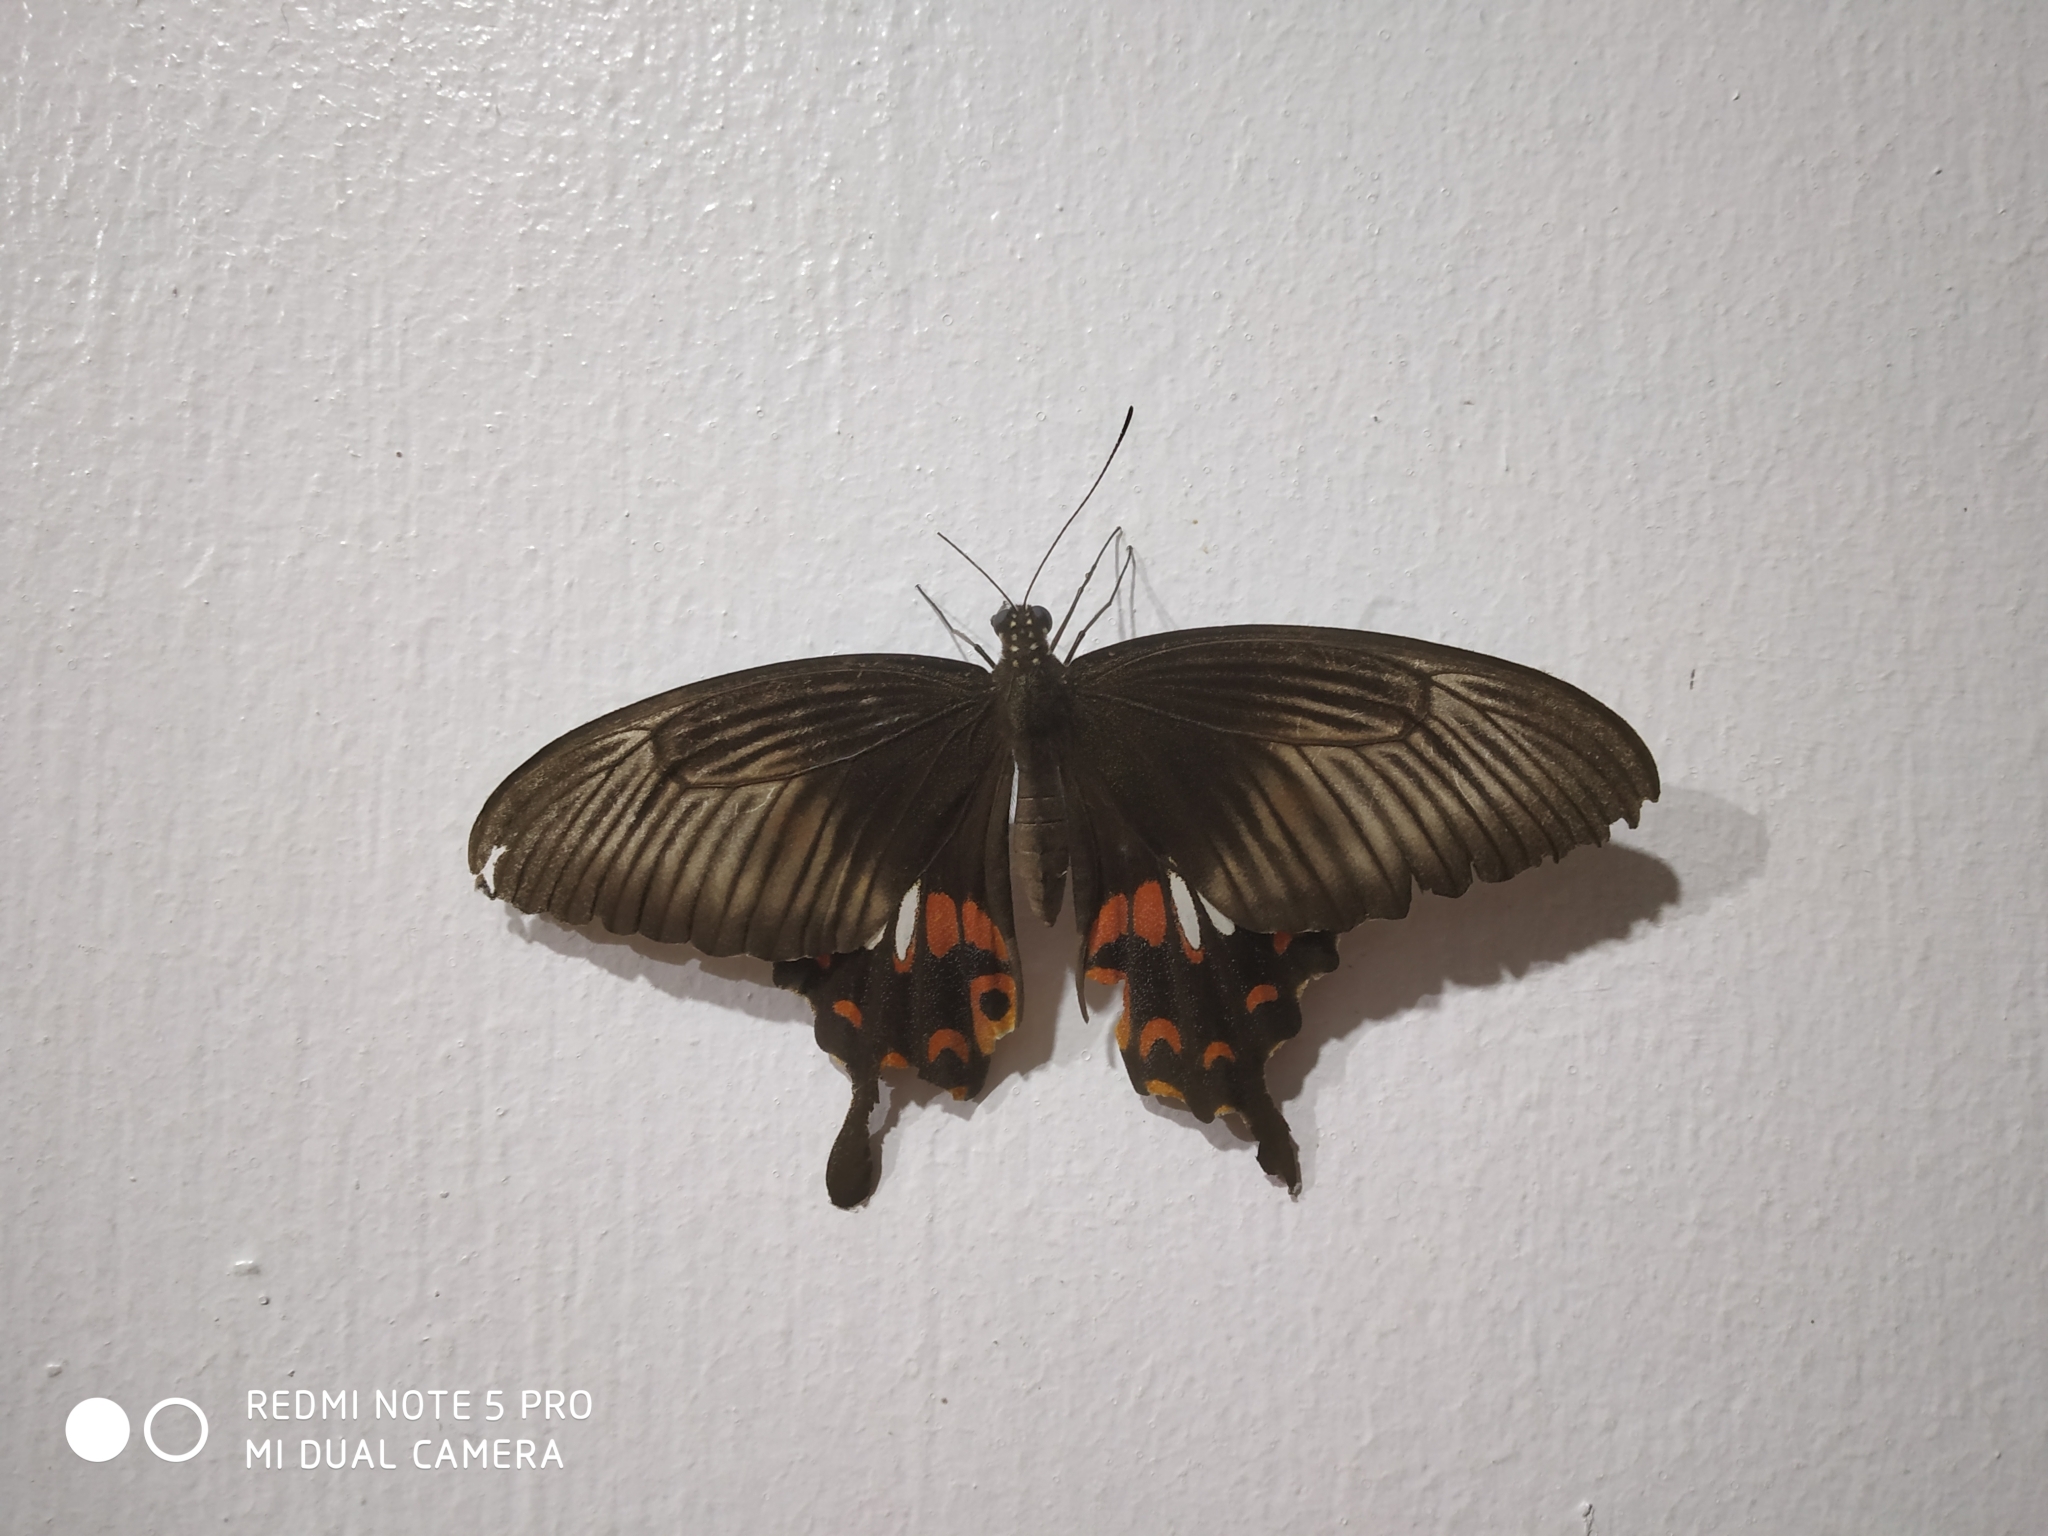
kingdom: Animalia
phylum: Arthropoda
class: Insecta
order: Lepidoptera
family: Papilionidae
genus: Papilio
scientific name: Papilio polytes
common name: Common mormon
